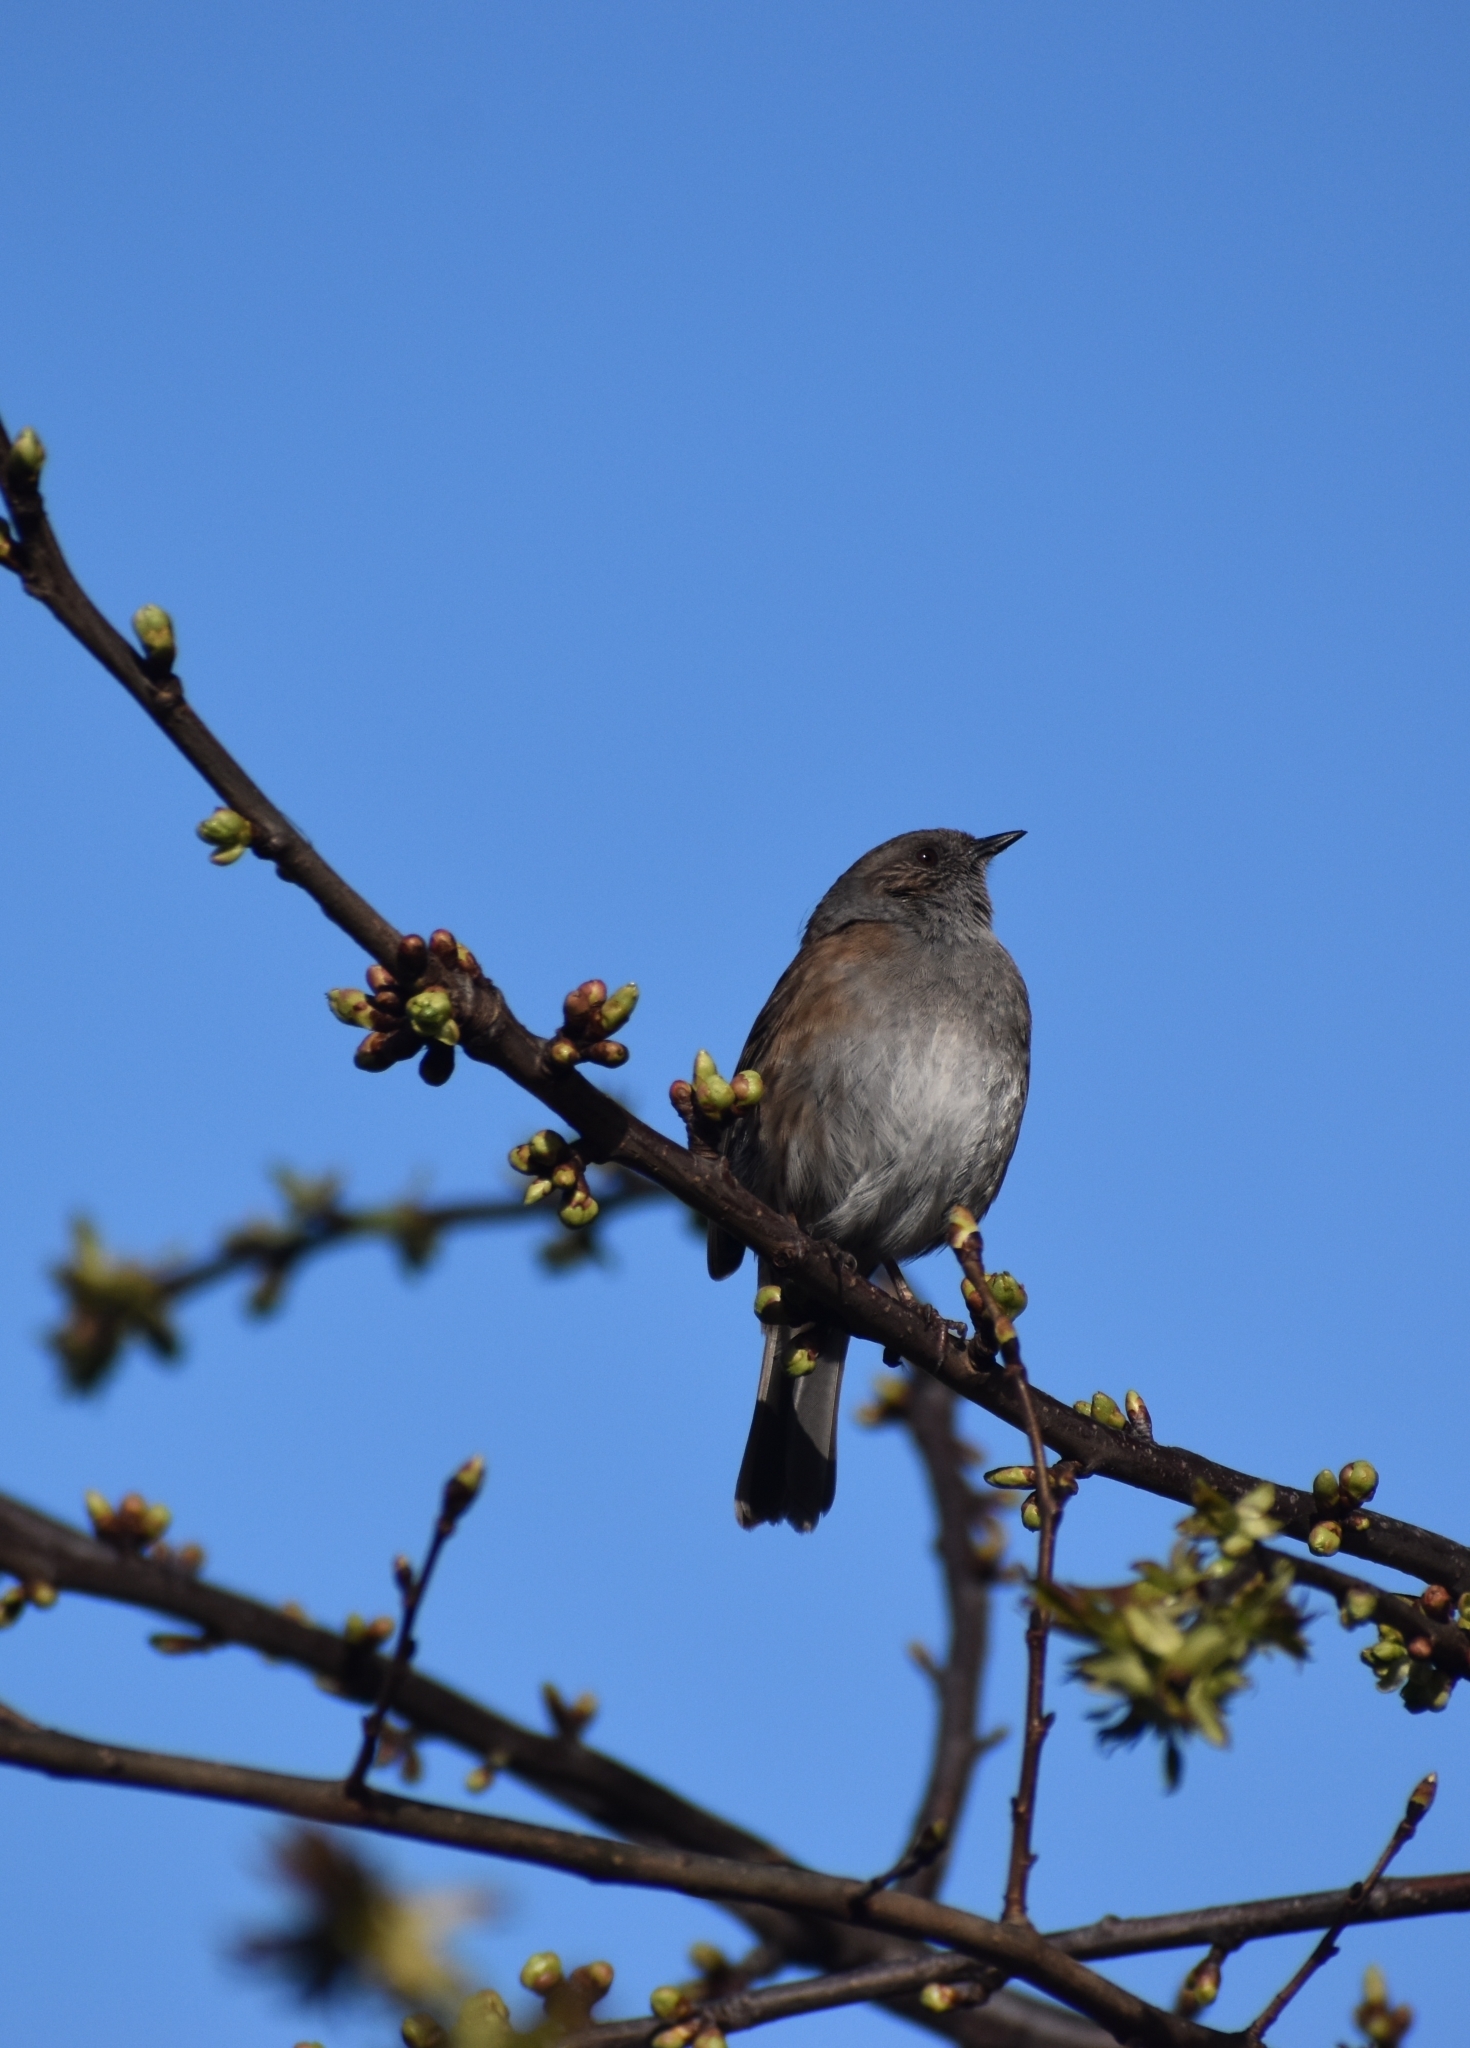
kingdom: Animalia
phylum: Chordata
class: Aves
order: Passeriformes
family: Prunellidae
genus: Prunella
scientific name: Prunella modularis
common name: Dunnock
